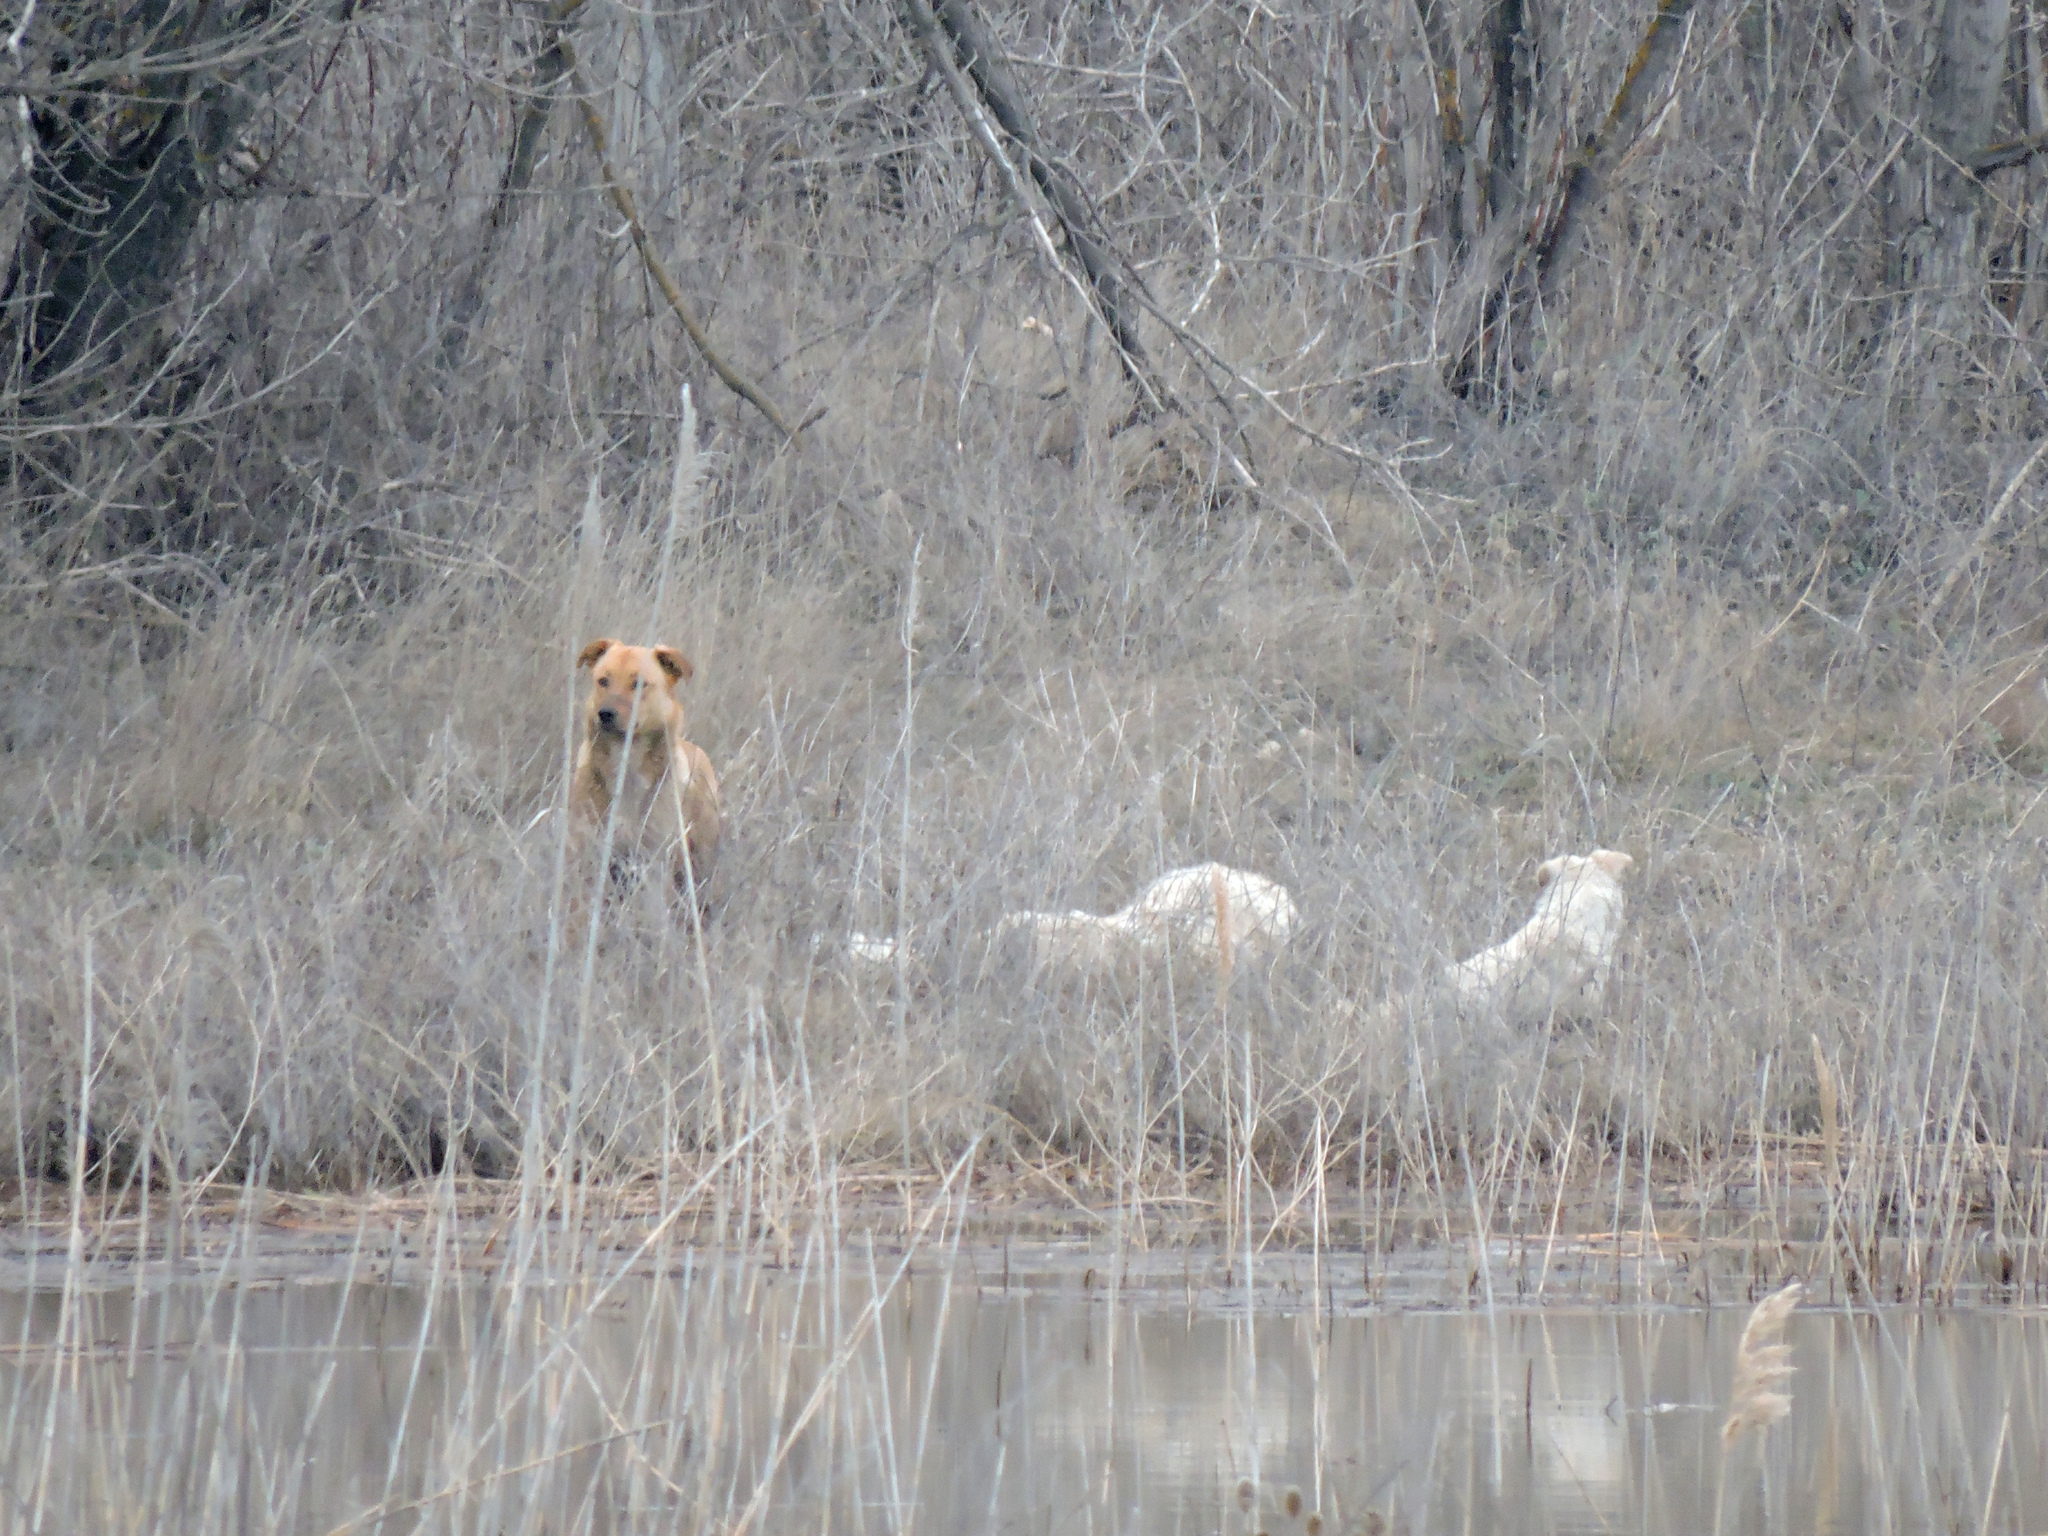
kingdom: Animalia
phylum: Chordata
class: Mammalia
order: Carnivora
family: Canidae
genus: Canis
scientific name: Canis lupus
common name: Gray wolf
